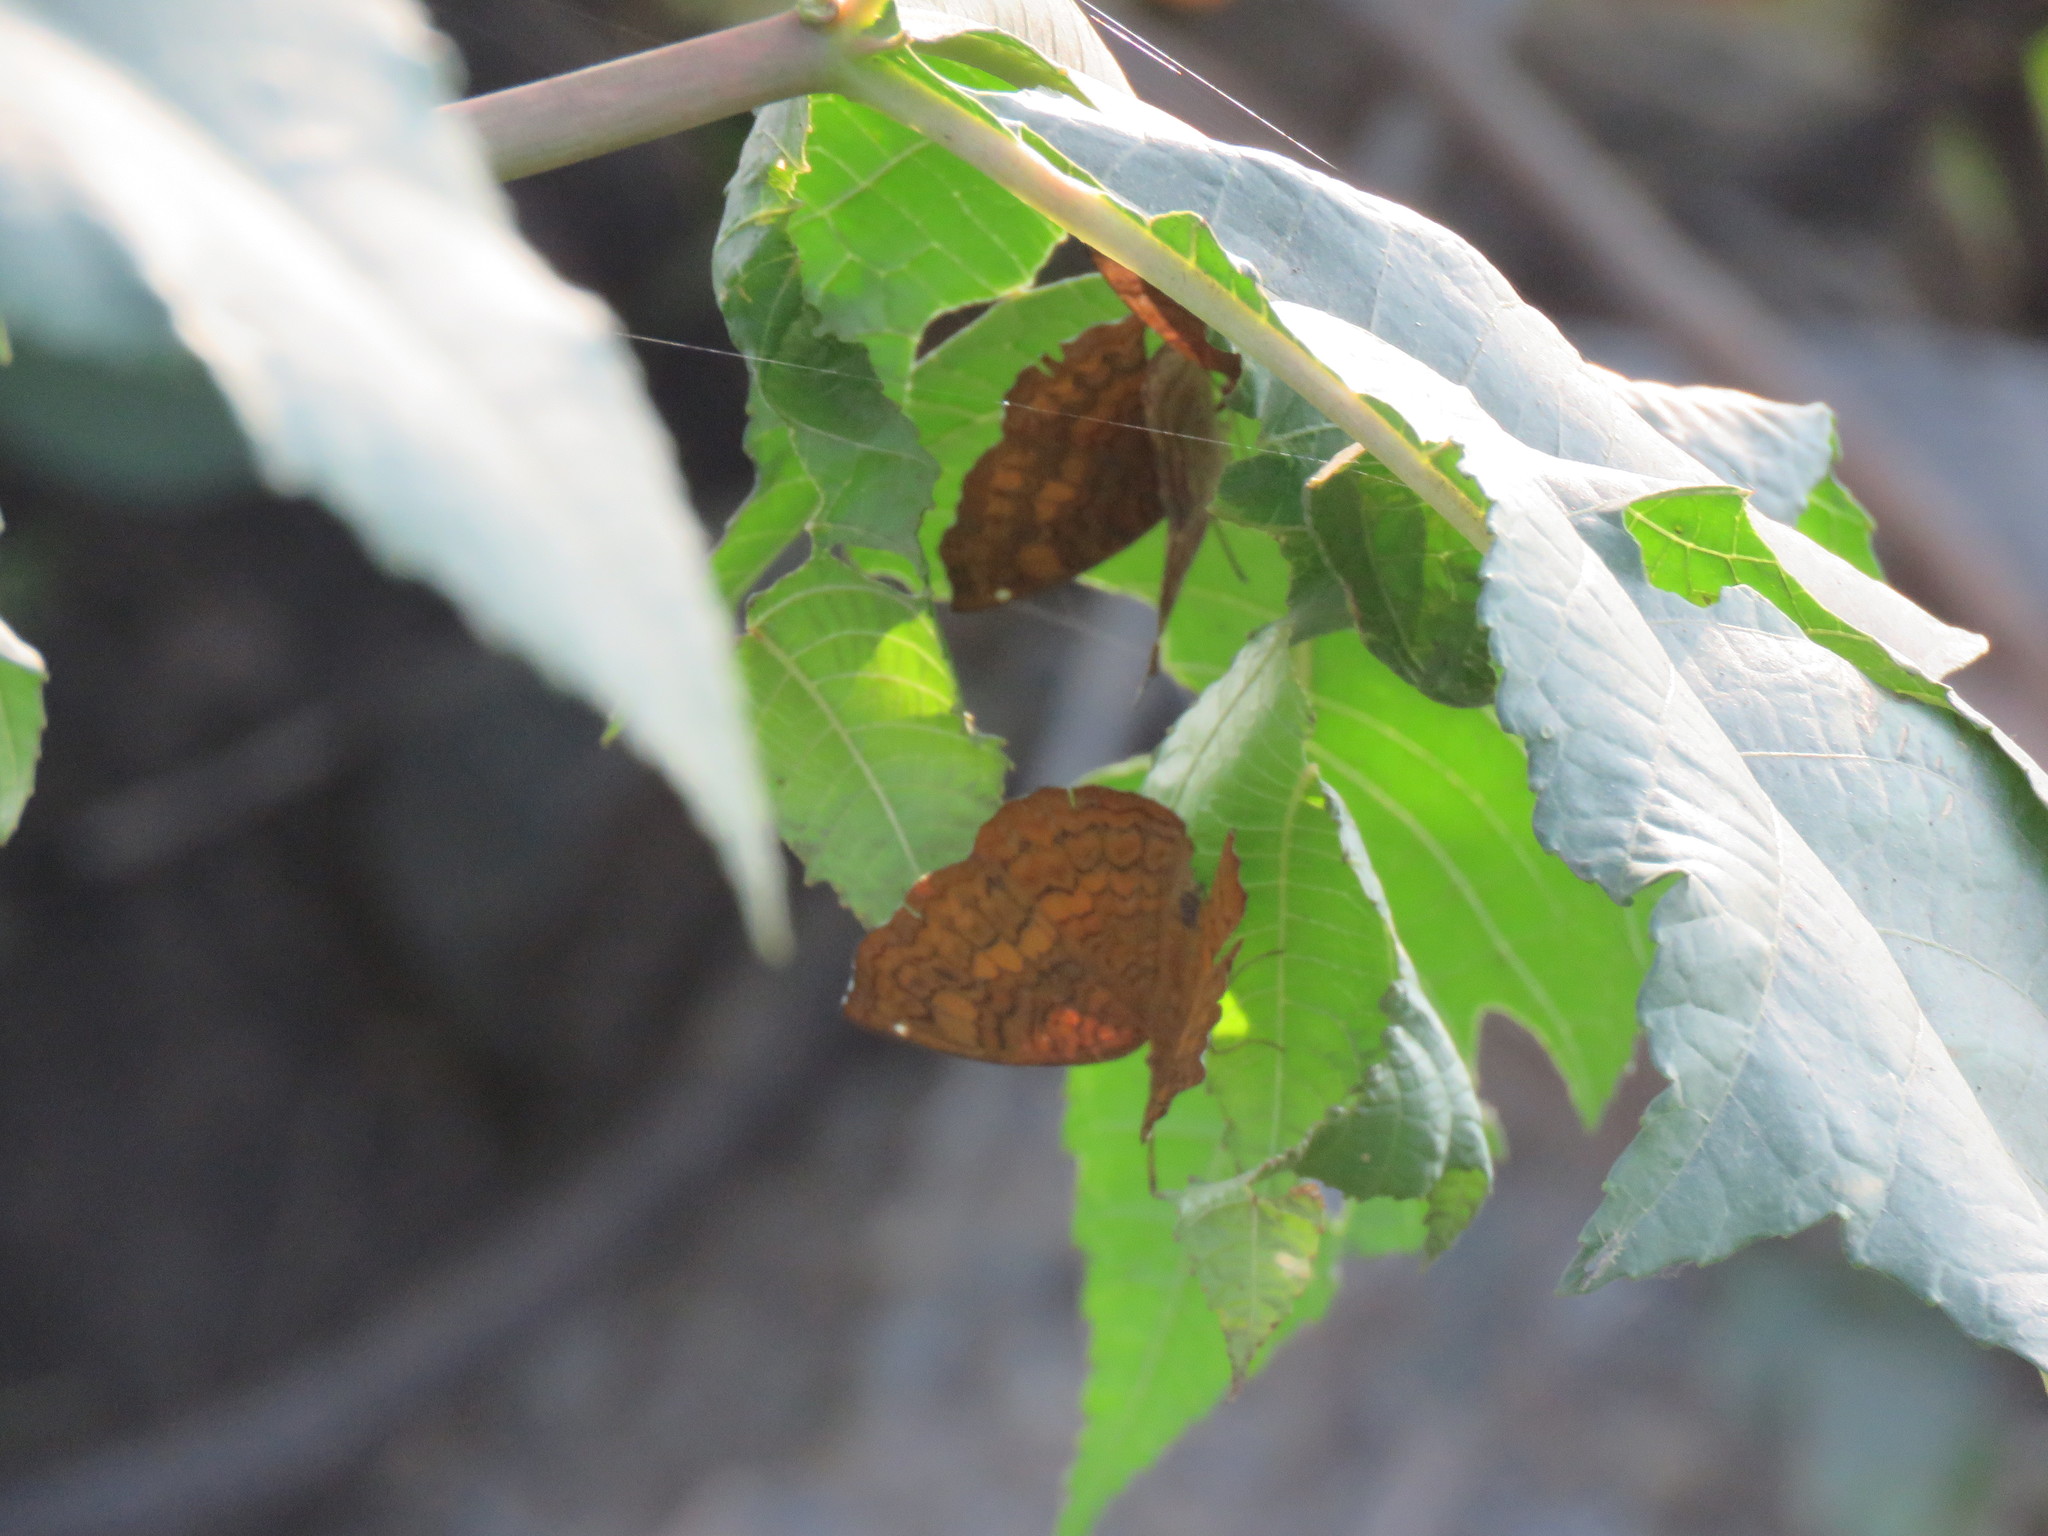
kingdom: Animalia
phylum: Arthropoda
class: Insecta
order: Lepidoptera
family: Nymphalidae
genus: Ariadne
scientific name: Ariadne merione
